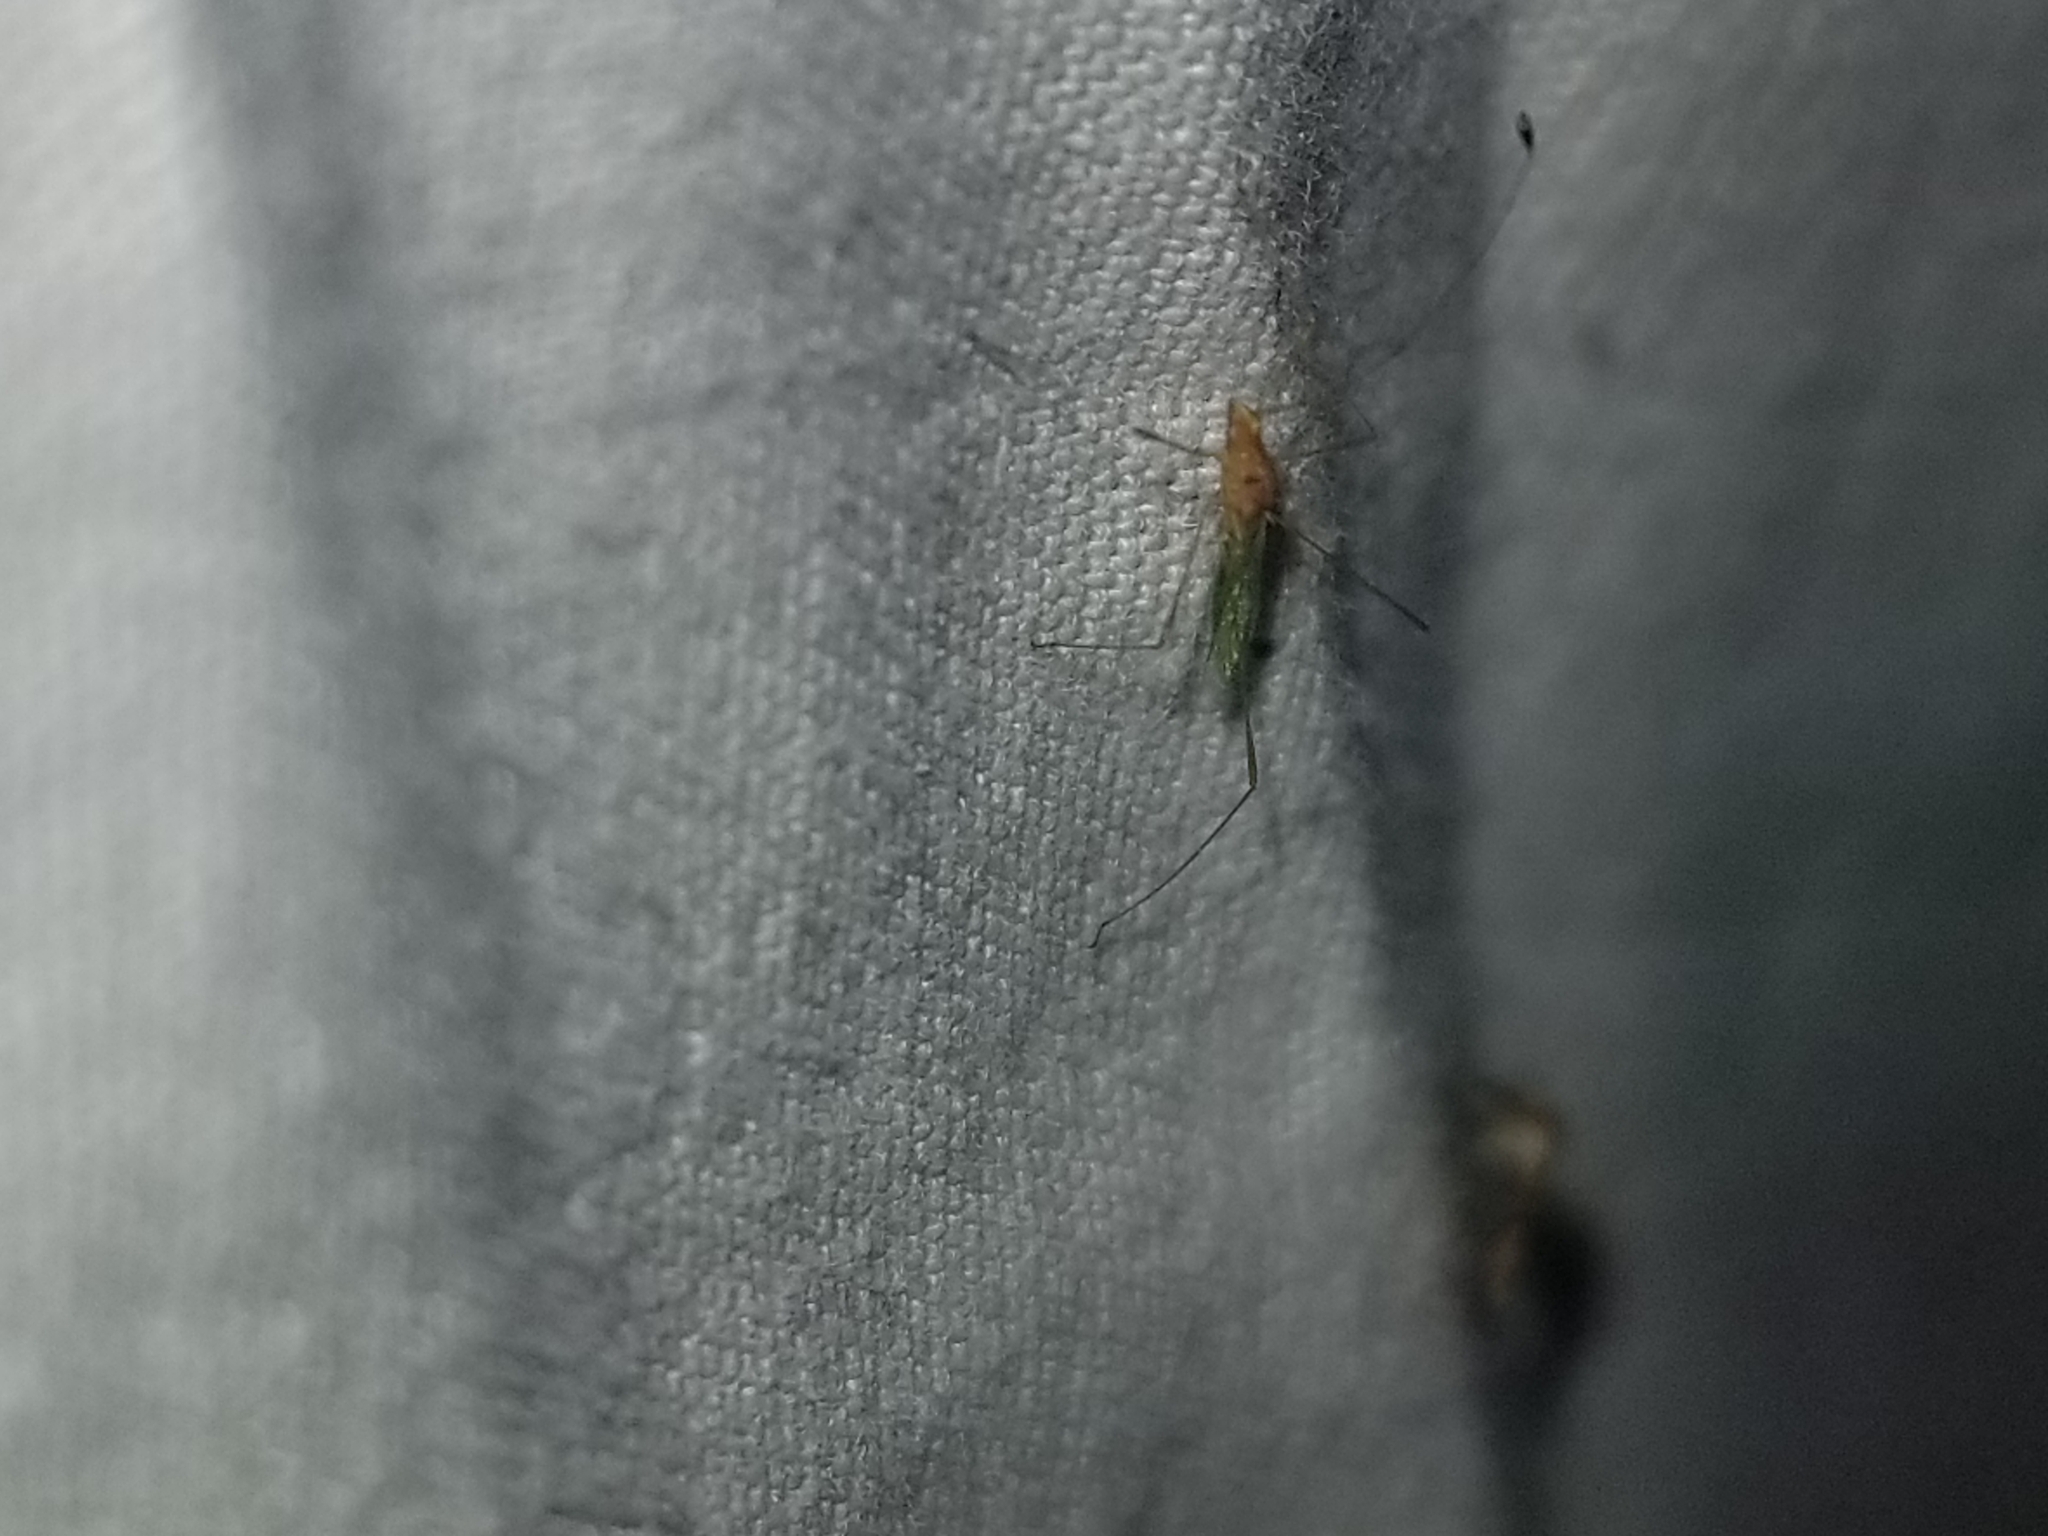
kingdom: Animalia
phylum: Arthropoda
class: Insecta
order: Hemiptera
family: Berytidae
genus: Metacanthus
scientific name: Metacanthus multispinus
